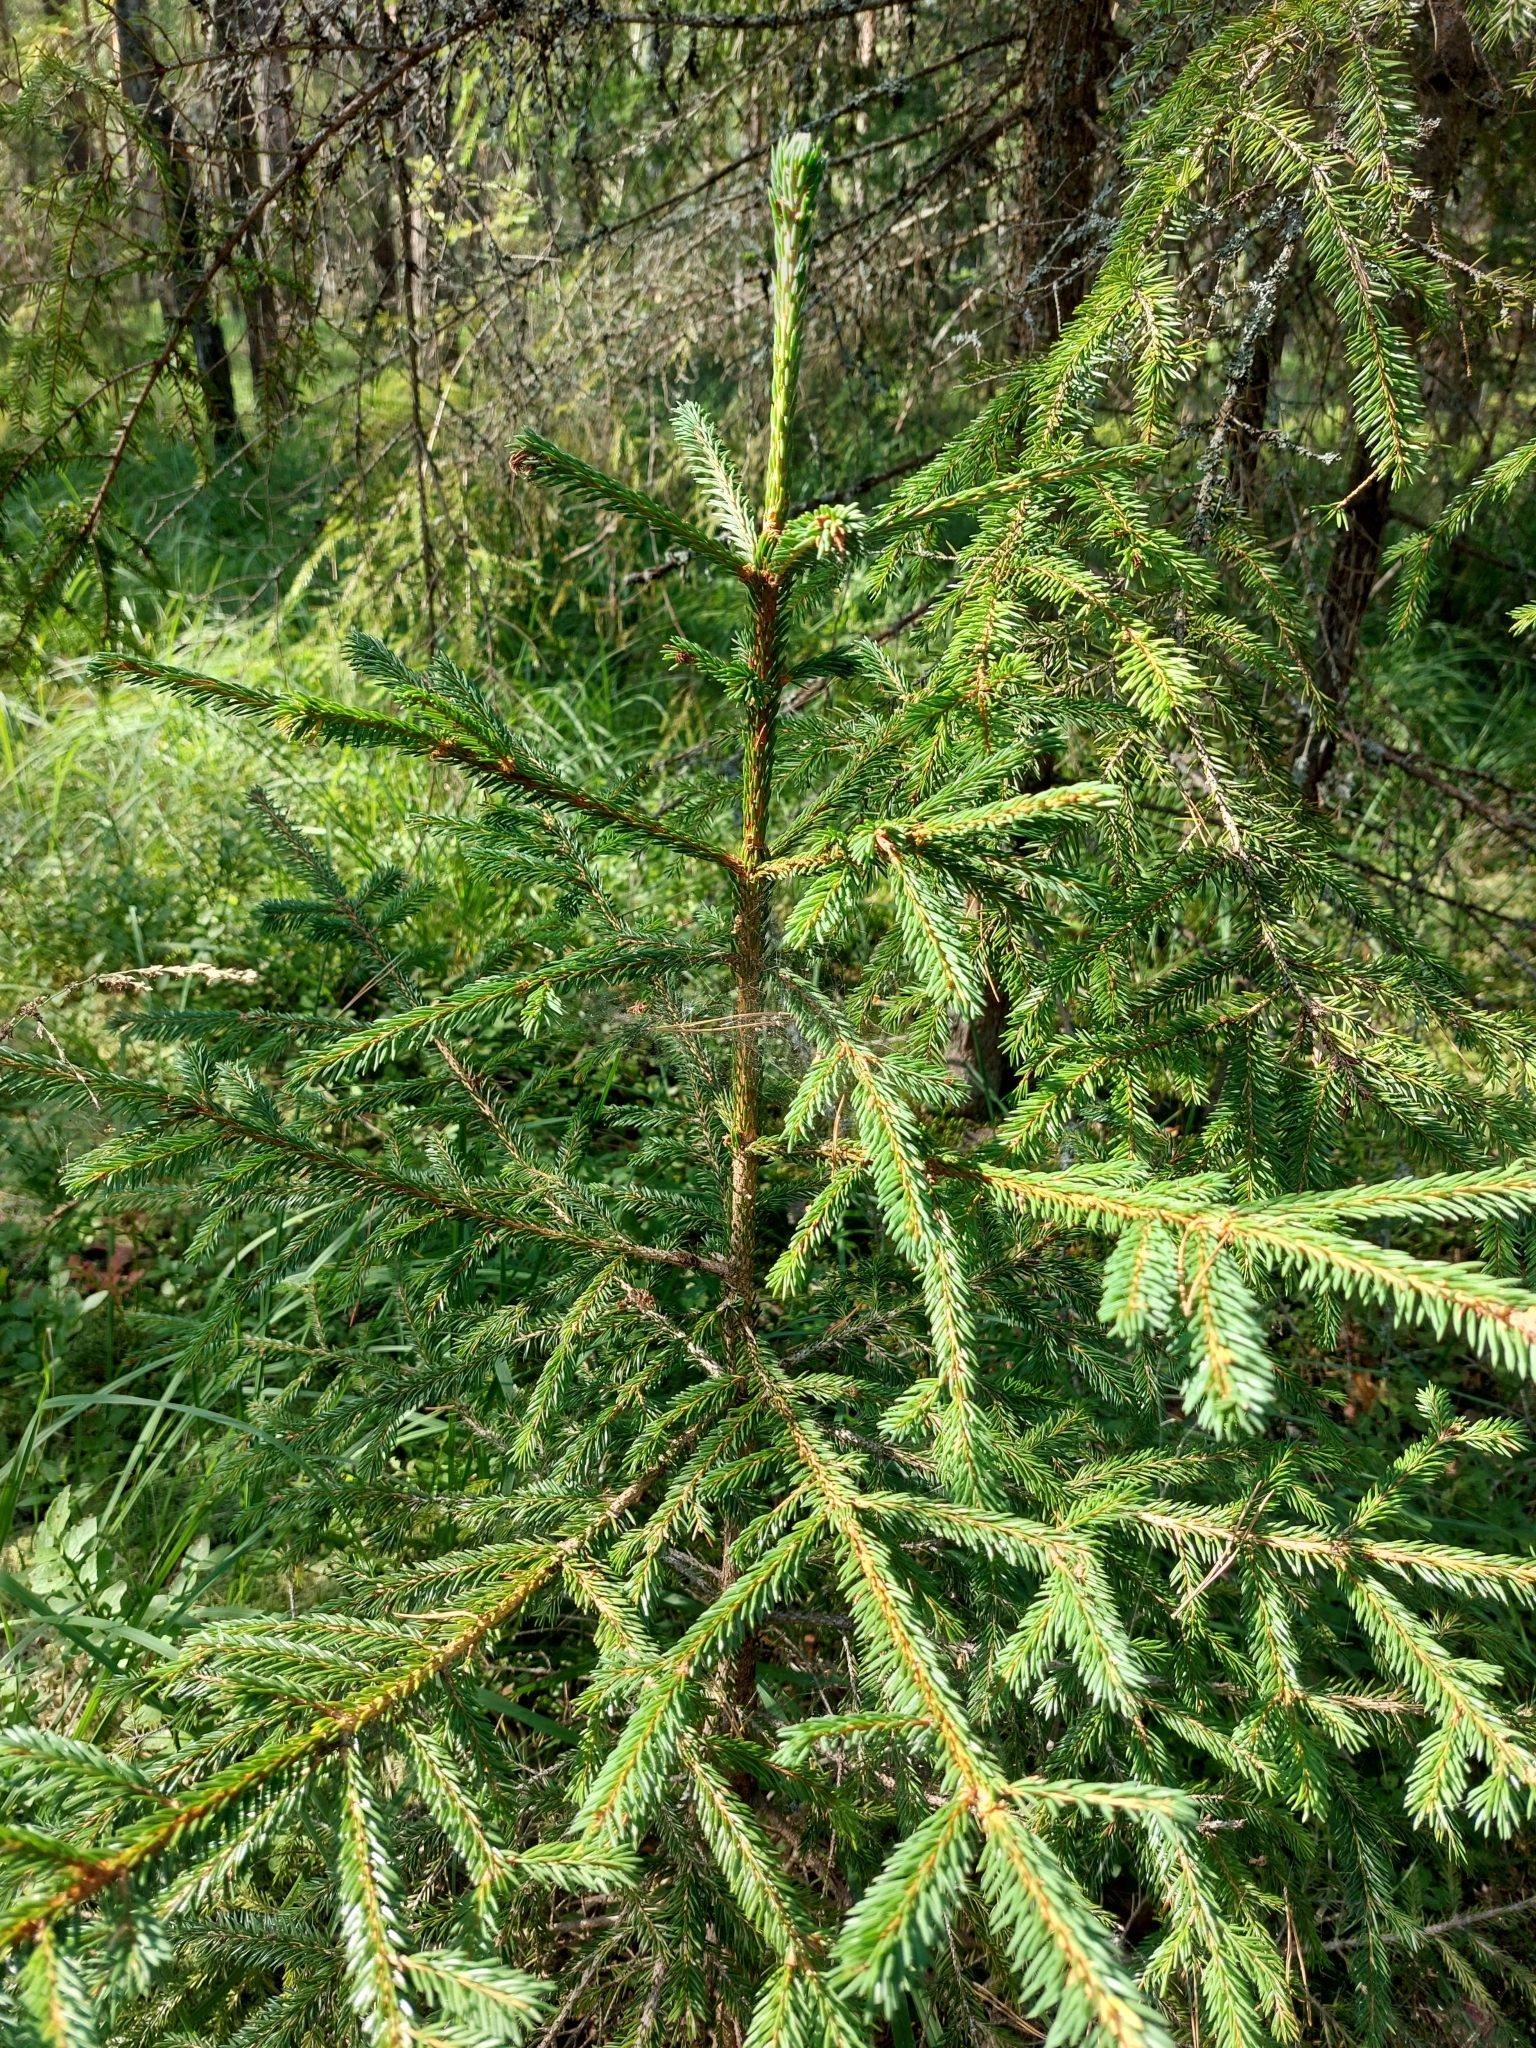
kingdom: Plantae
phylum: Tracheophyta
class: Pinopsida
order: Pinales
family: Pinaceae
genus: Picea
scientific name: Picea abies
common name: Norway spruce
